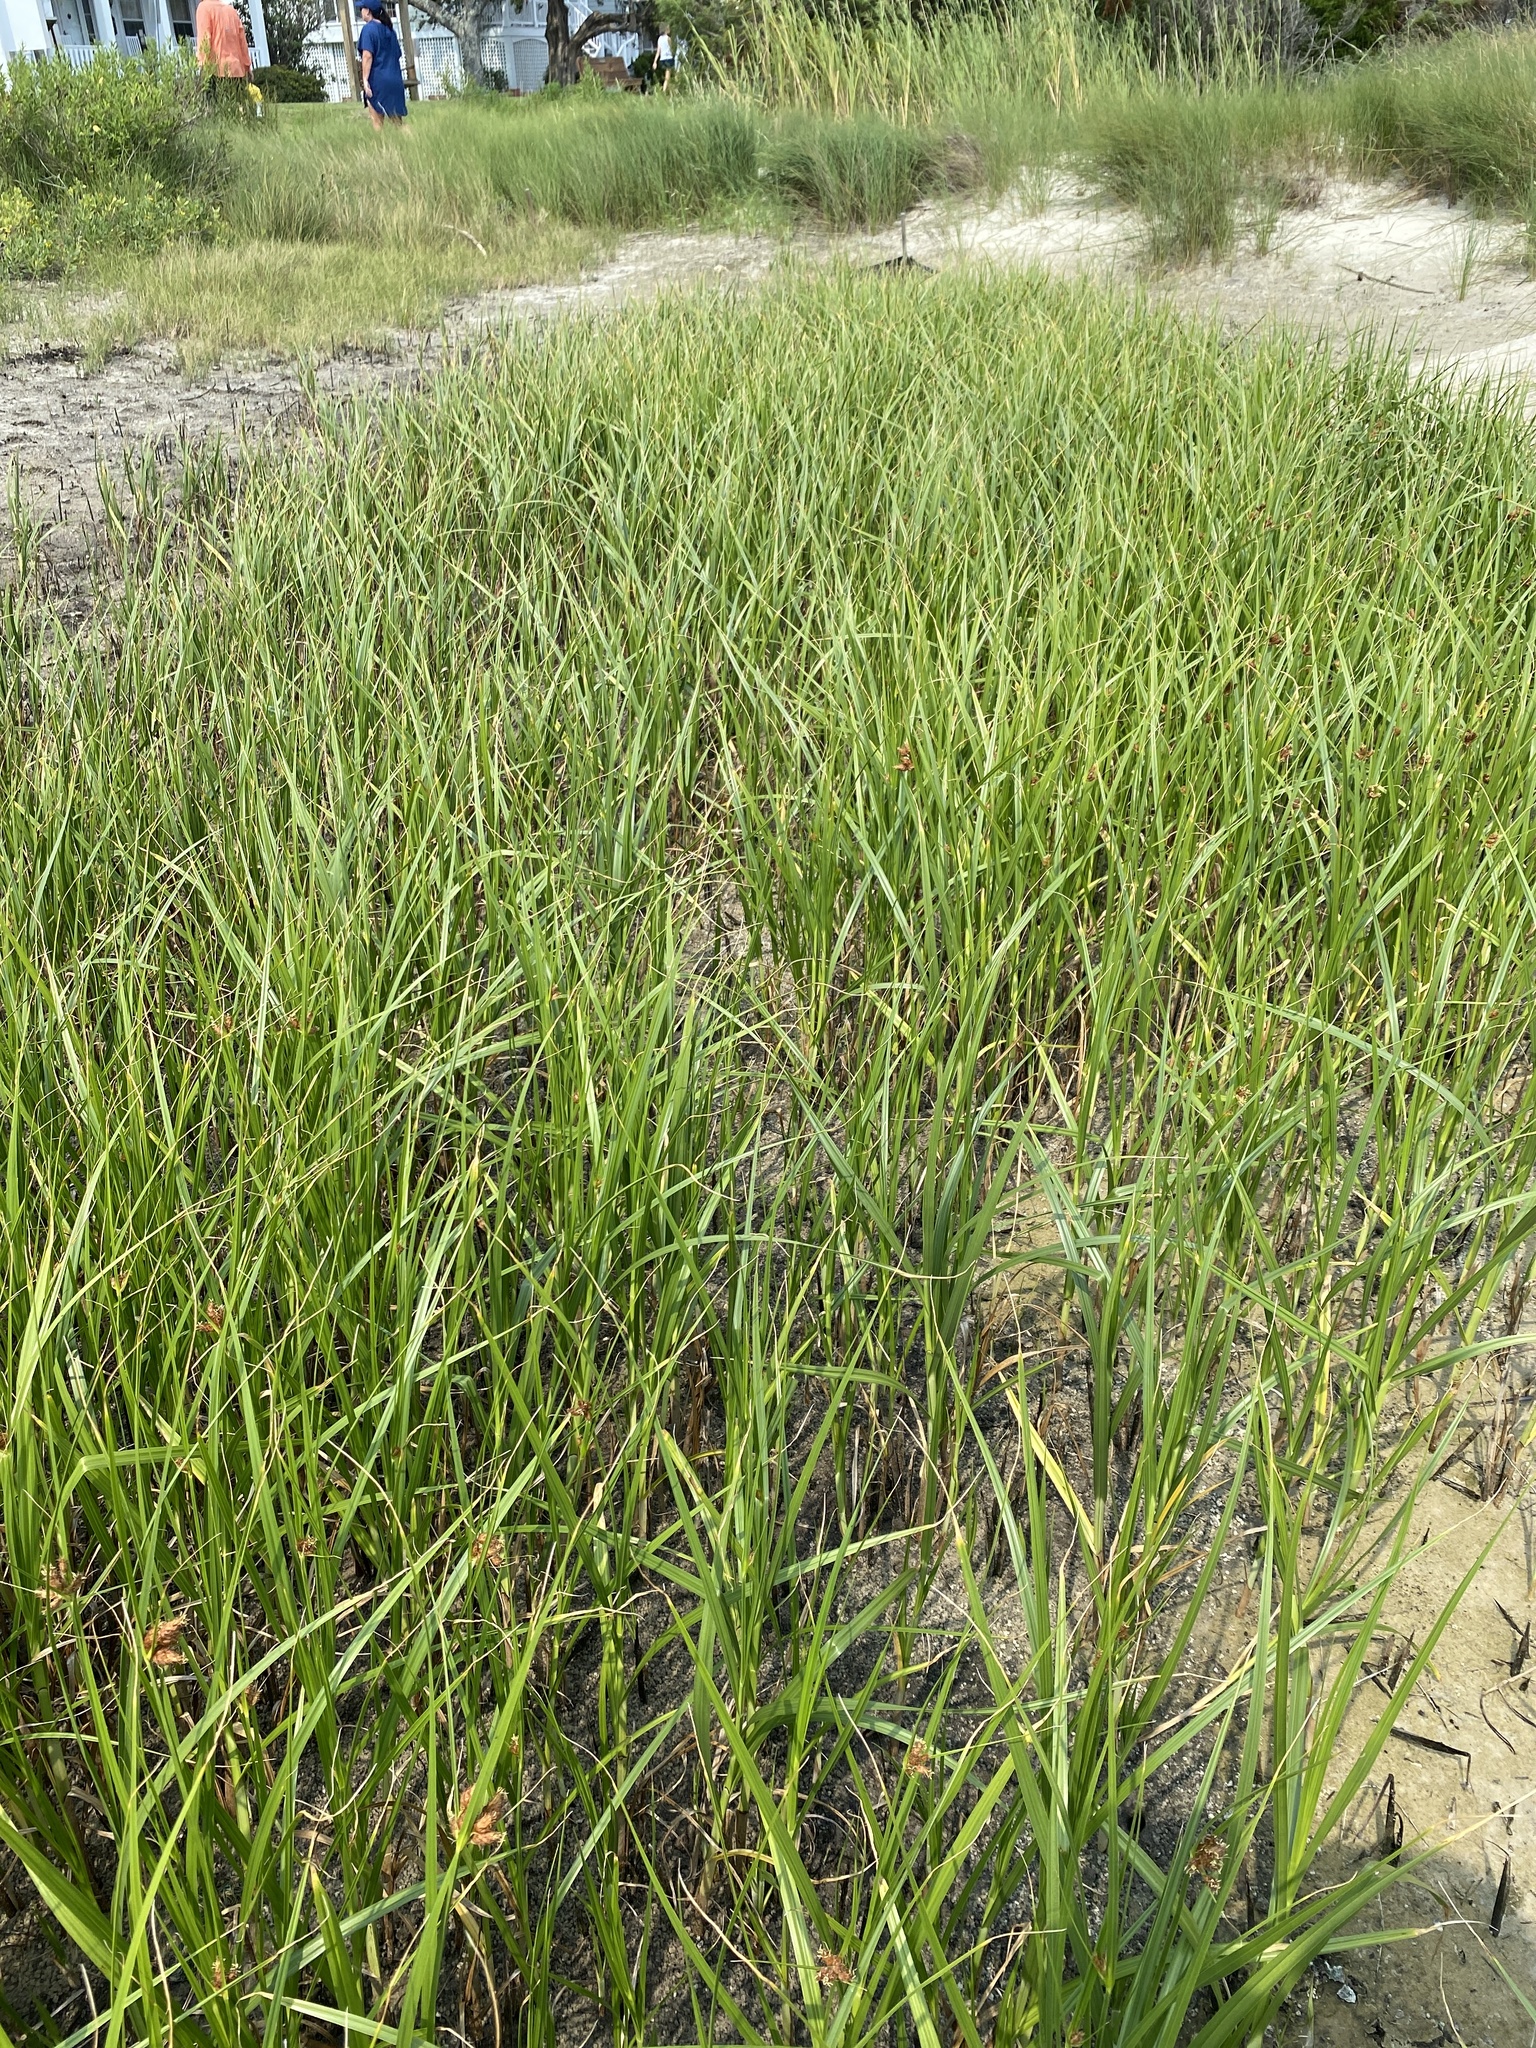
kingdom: Plantae
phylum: Tracheophyta
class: Liliopsida
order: Poales
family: Cyperaceae
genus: Bolboschoenus
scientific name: Bolboschoenus robustus
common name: Seacoast bulrush
